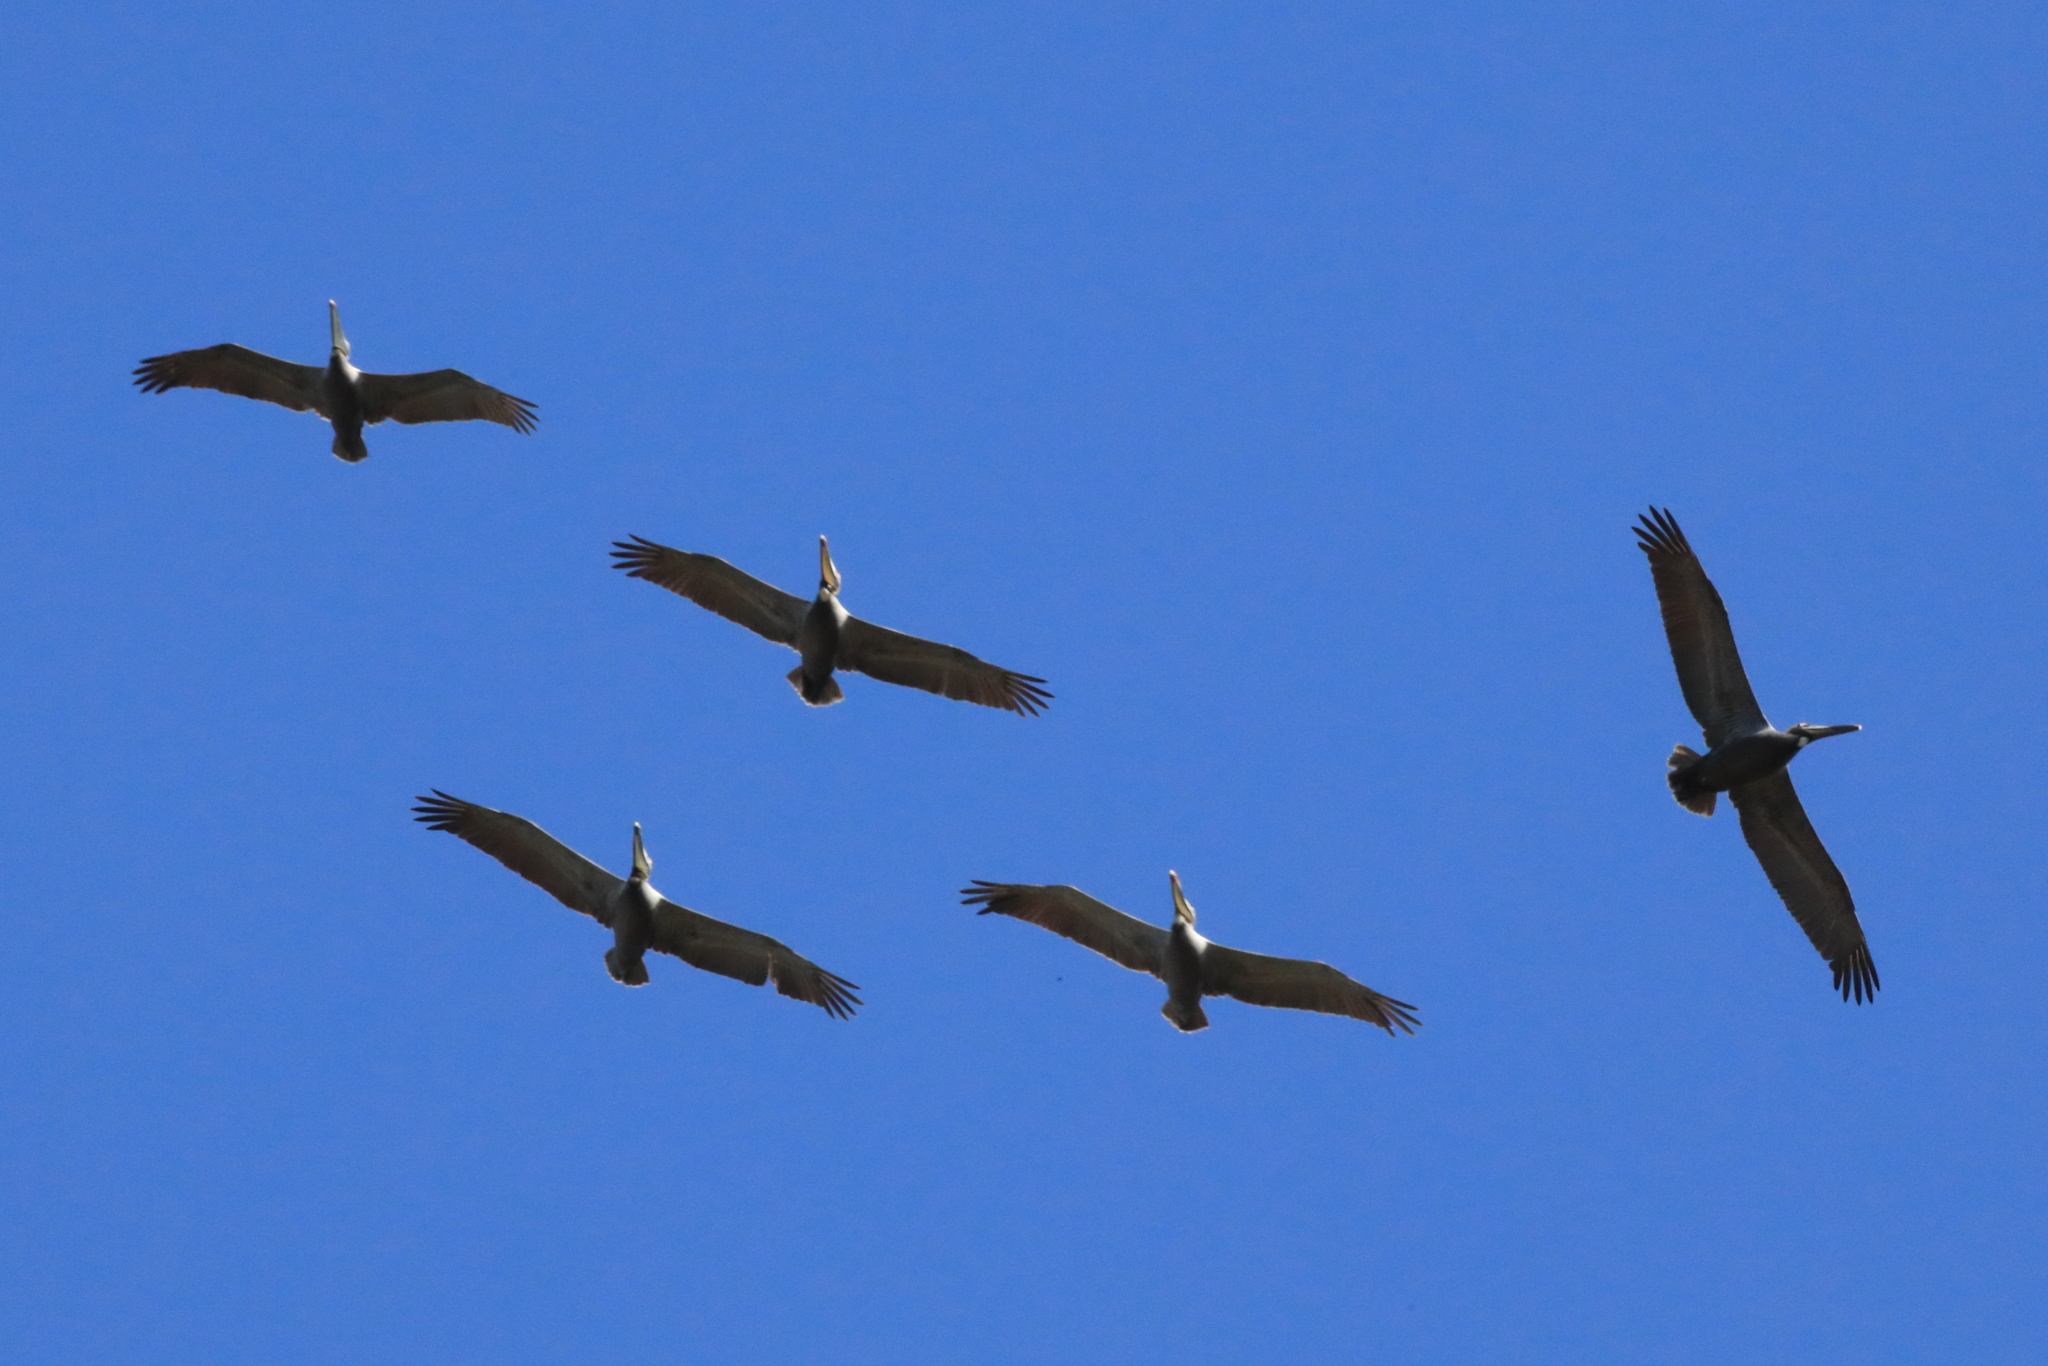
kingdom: Animalia
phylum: Chordata
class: Aves
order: Pelecaniformes
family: Pelecanidae
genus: Pelecanus
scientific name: Pelecanus occidentalis
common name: Brown pelican
